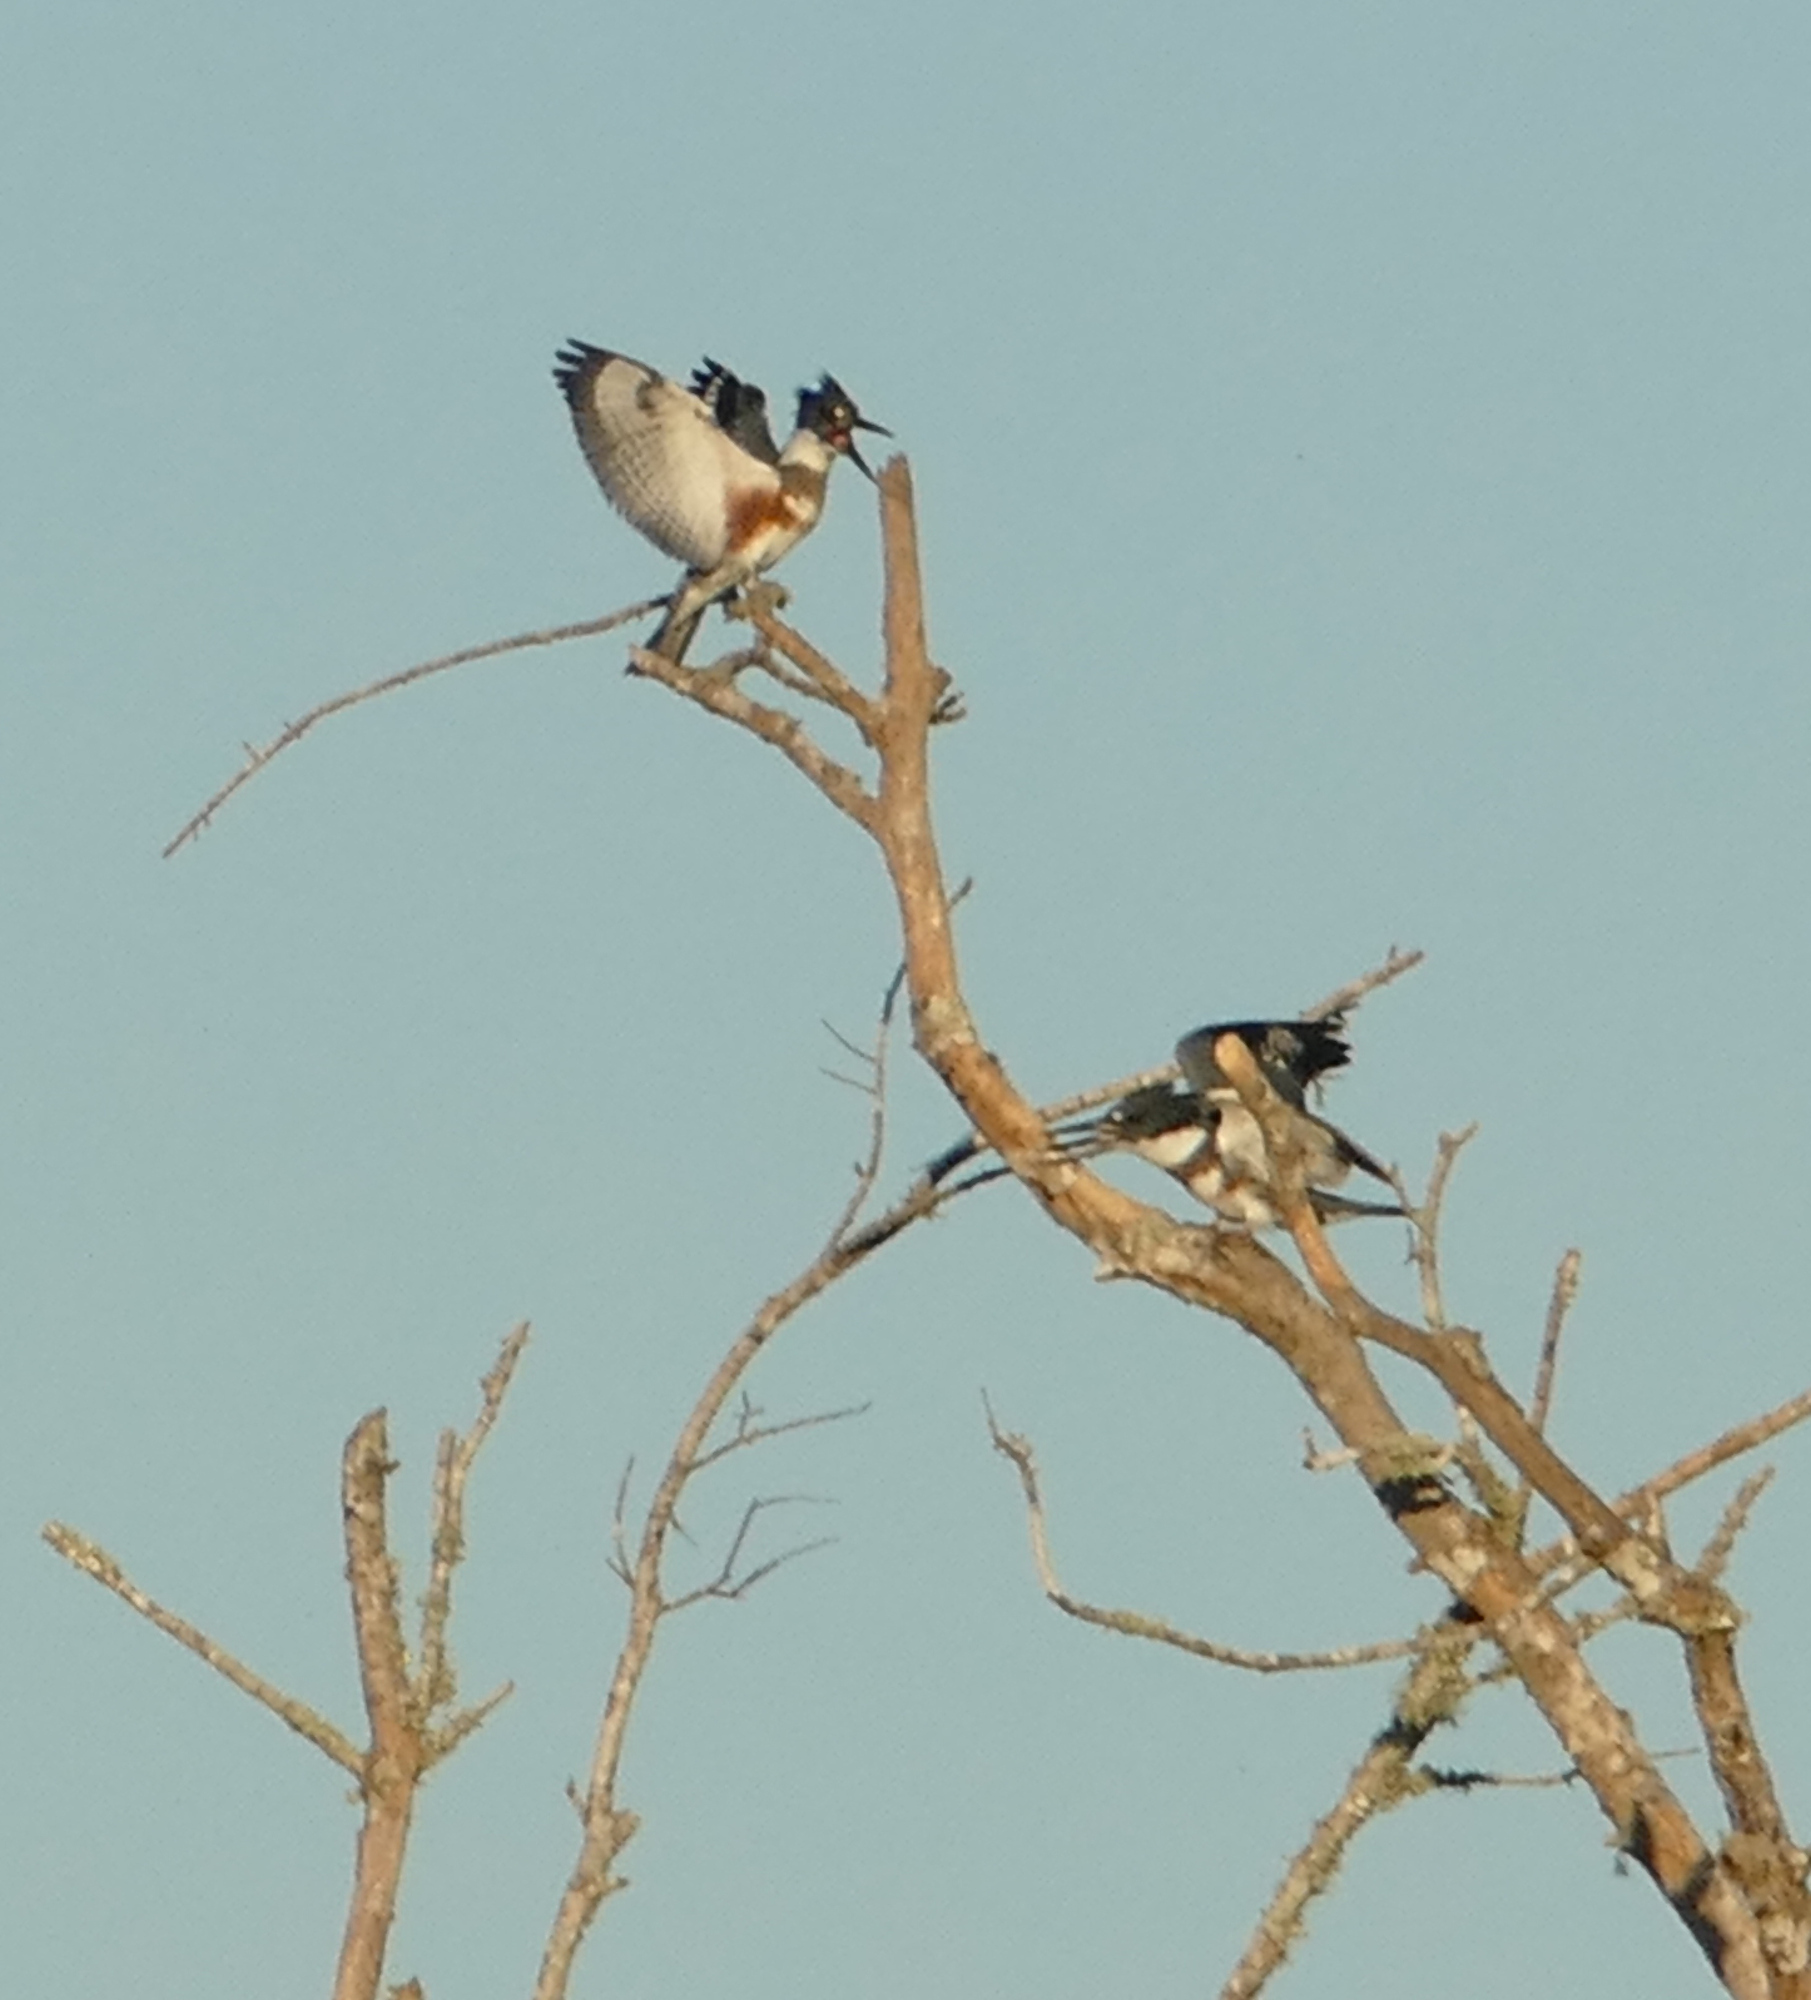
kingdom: Animalia
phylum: Chordata
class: Aves
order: Coraciiformes
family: Alcedinidae
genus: Megaceryle
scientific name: Megaceryle alcyon
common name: Belted kingfisher
